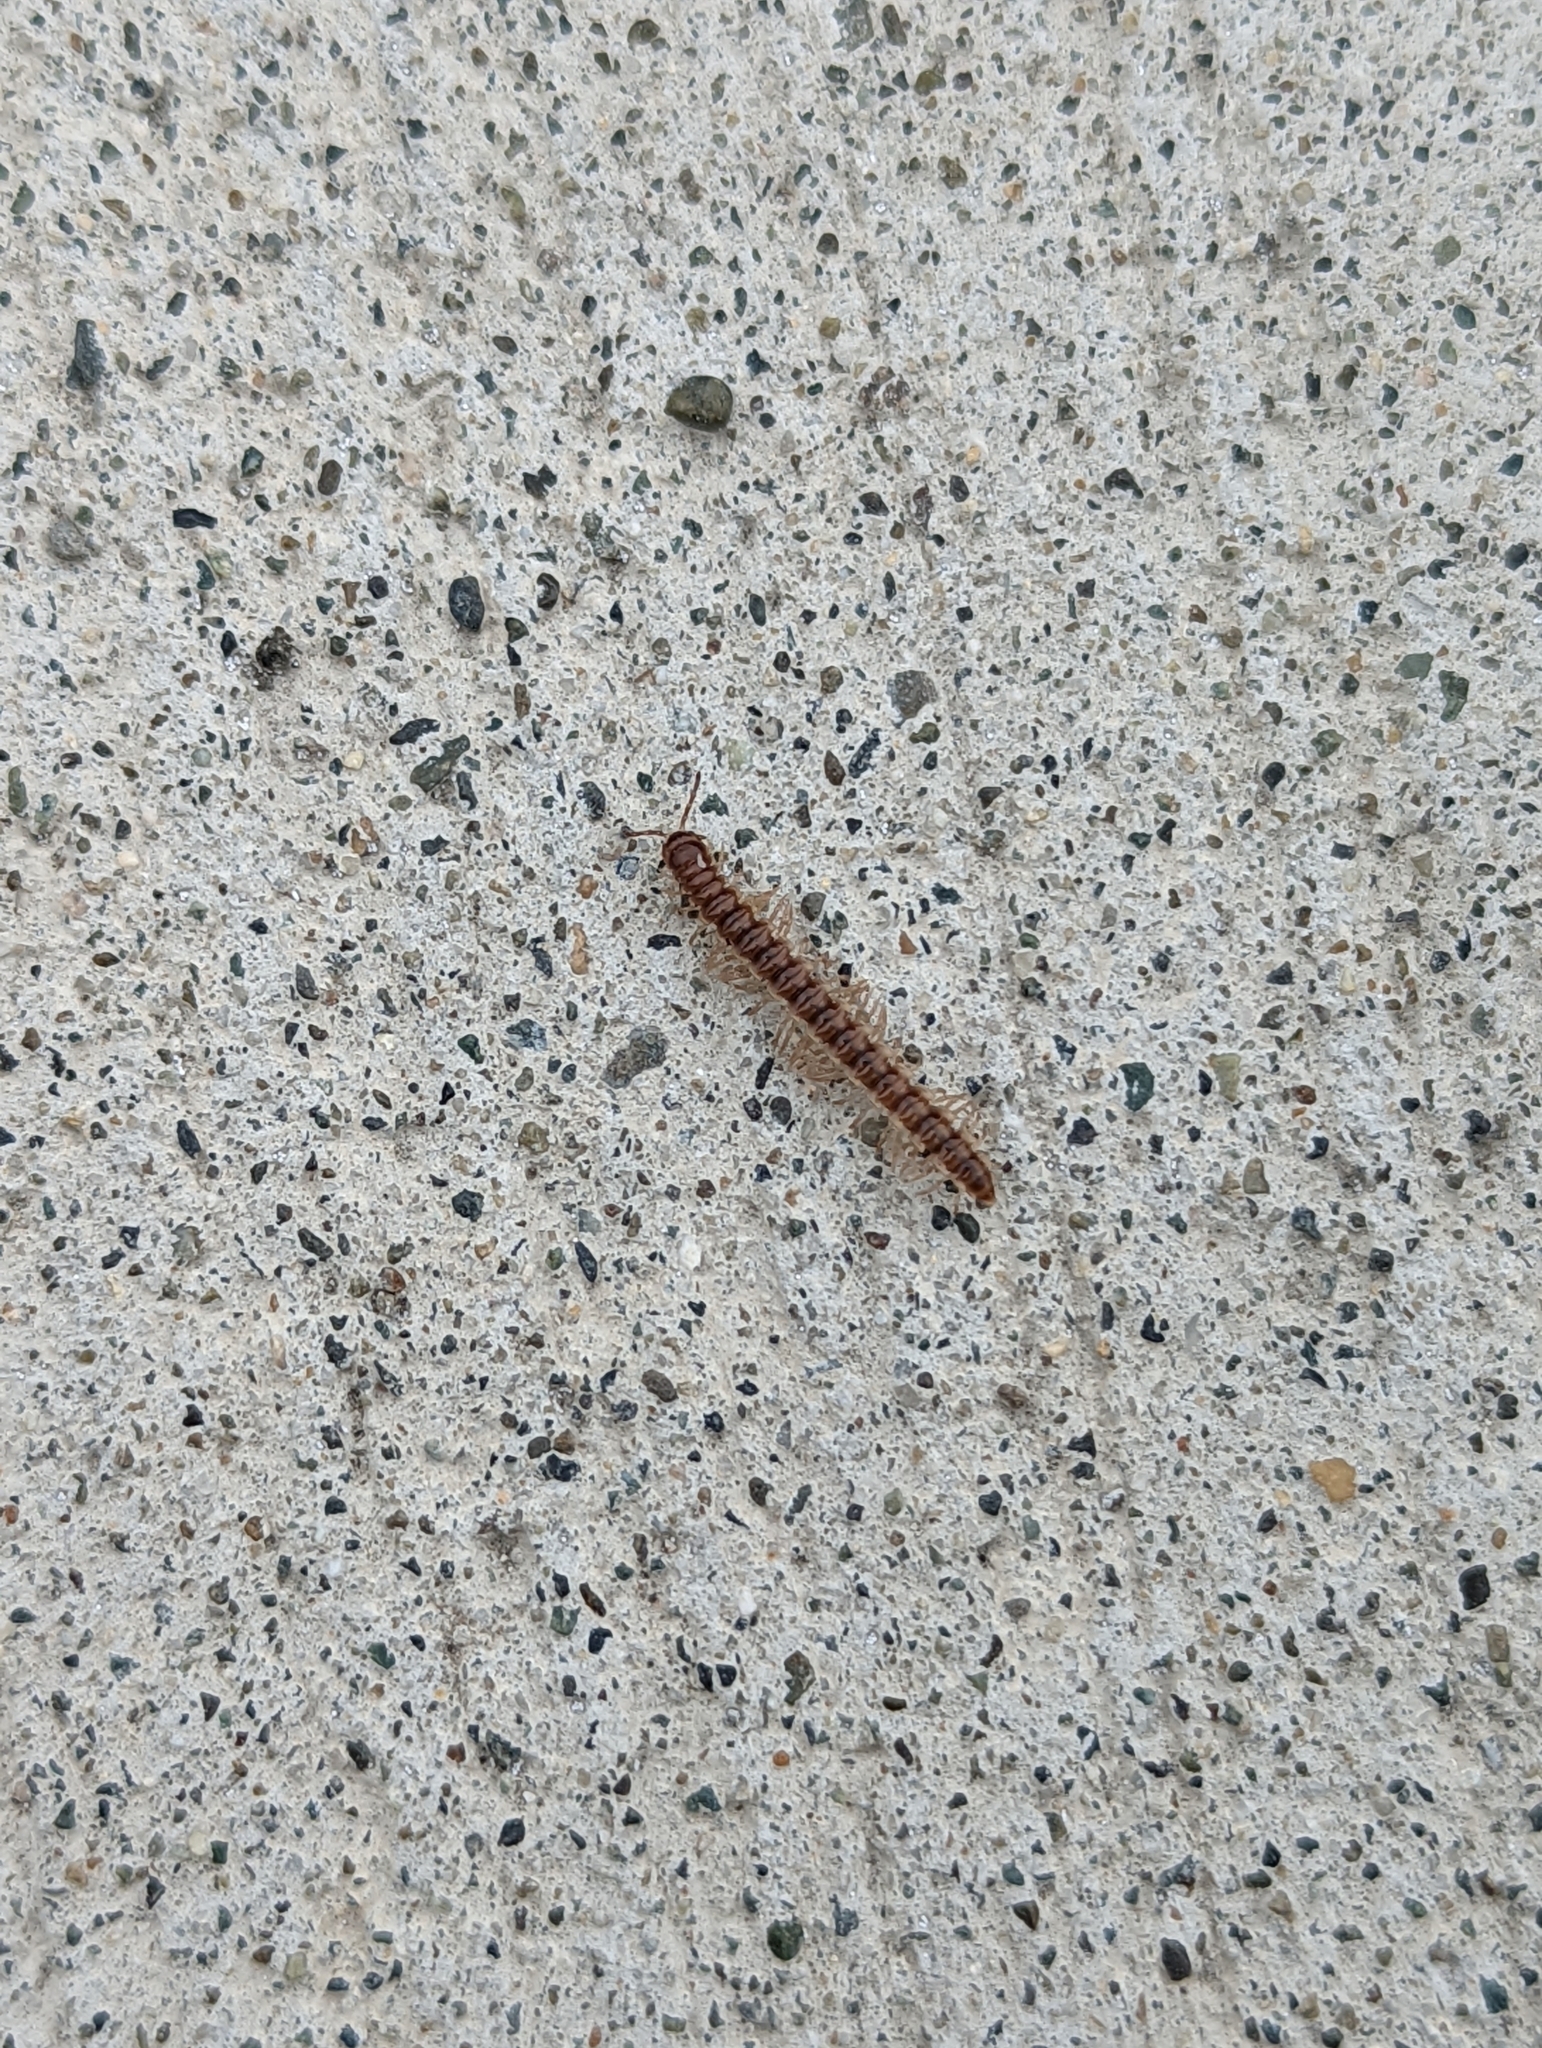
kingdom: Animalia
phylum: Arthropoda
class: Diplopoda
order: Polydesmida
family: Paradoxosomatidae
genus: Oxidus
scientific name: Oxidus gracilis
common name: Greenhouse millipede
